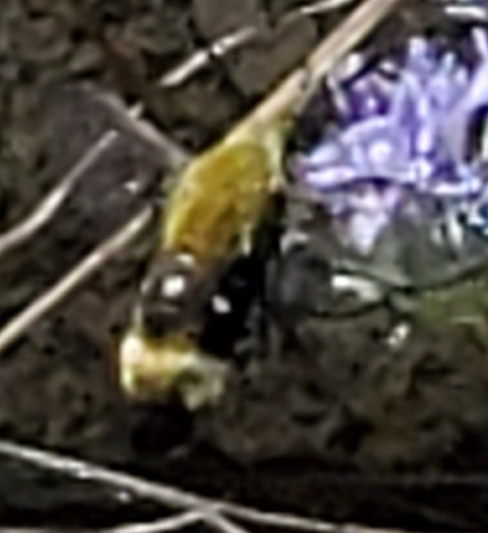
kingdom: Animalia
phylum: Arthropoda
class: Insecta
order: Lepidoptera
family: Sphingidae
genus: Hemaris
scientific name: Hemaris thetis
